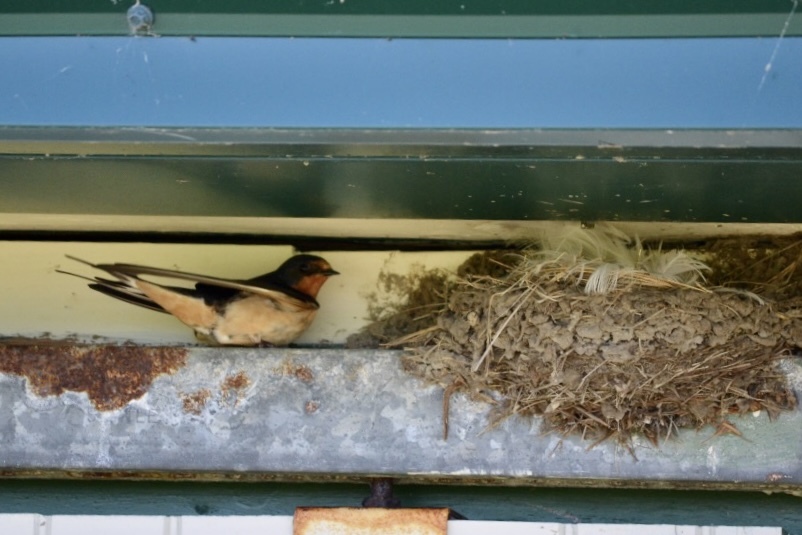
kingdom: Animalia
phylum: Chordata
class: Aves
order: Passeriformes
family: Hirundinidae
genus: Hirundo
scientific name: Hirundo rustica
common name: Barn swallow
